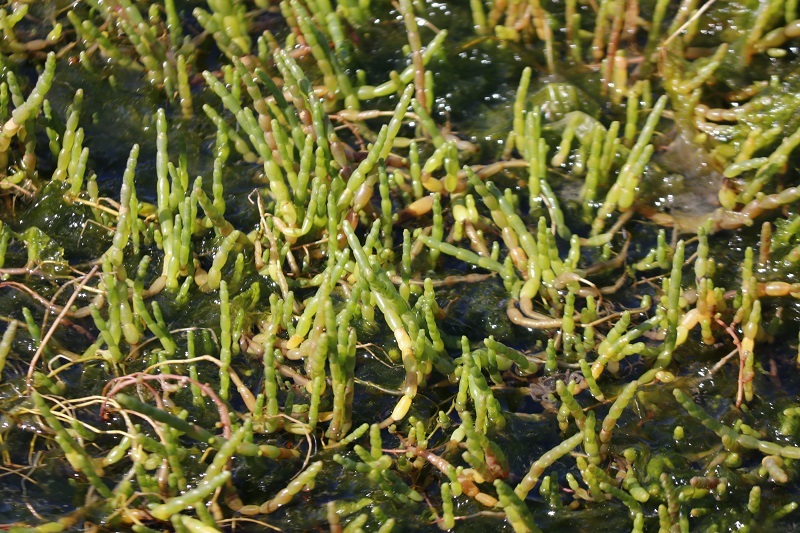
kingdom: Plantae
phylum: Tracheophyta
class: Magnoliopsida
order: Caryophyllales
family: Amaranthaceae
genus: Salicornia
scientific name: Salicornia tegetaria
